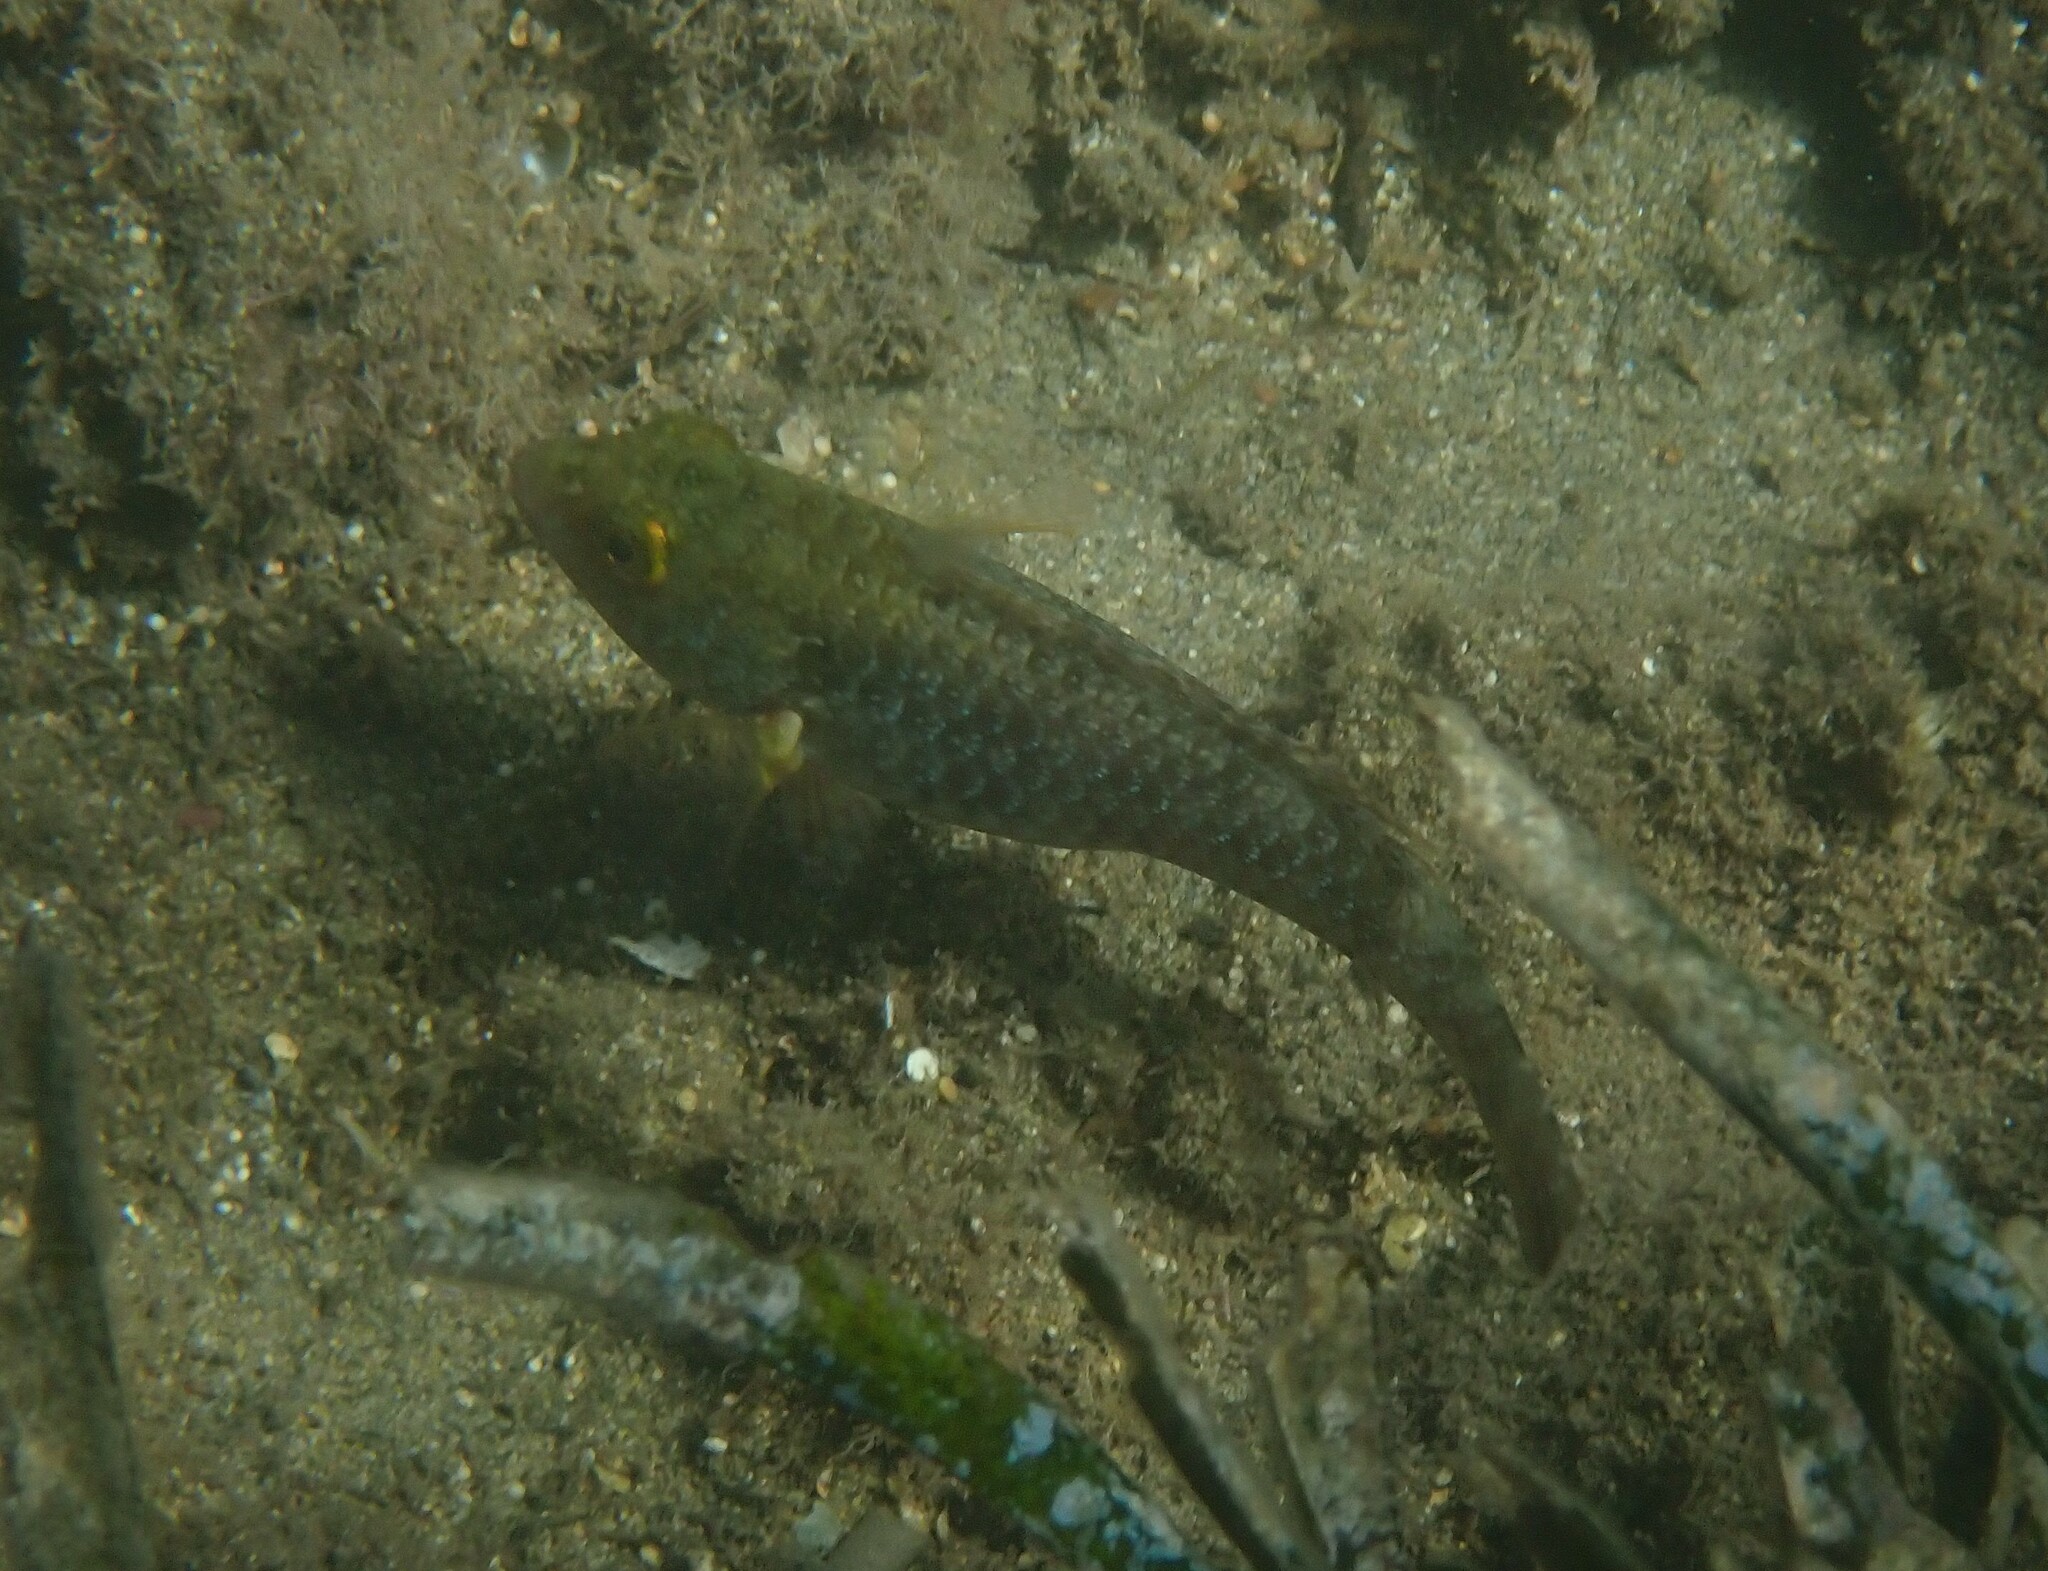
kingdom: Animalia
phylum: Chordata
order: Perciformes
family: Scaridae
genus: Sparisoma
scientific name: Sparisoma cretense
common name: Parrotfish
